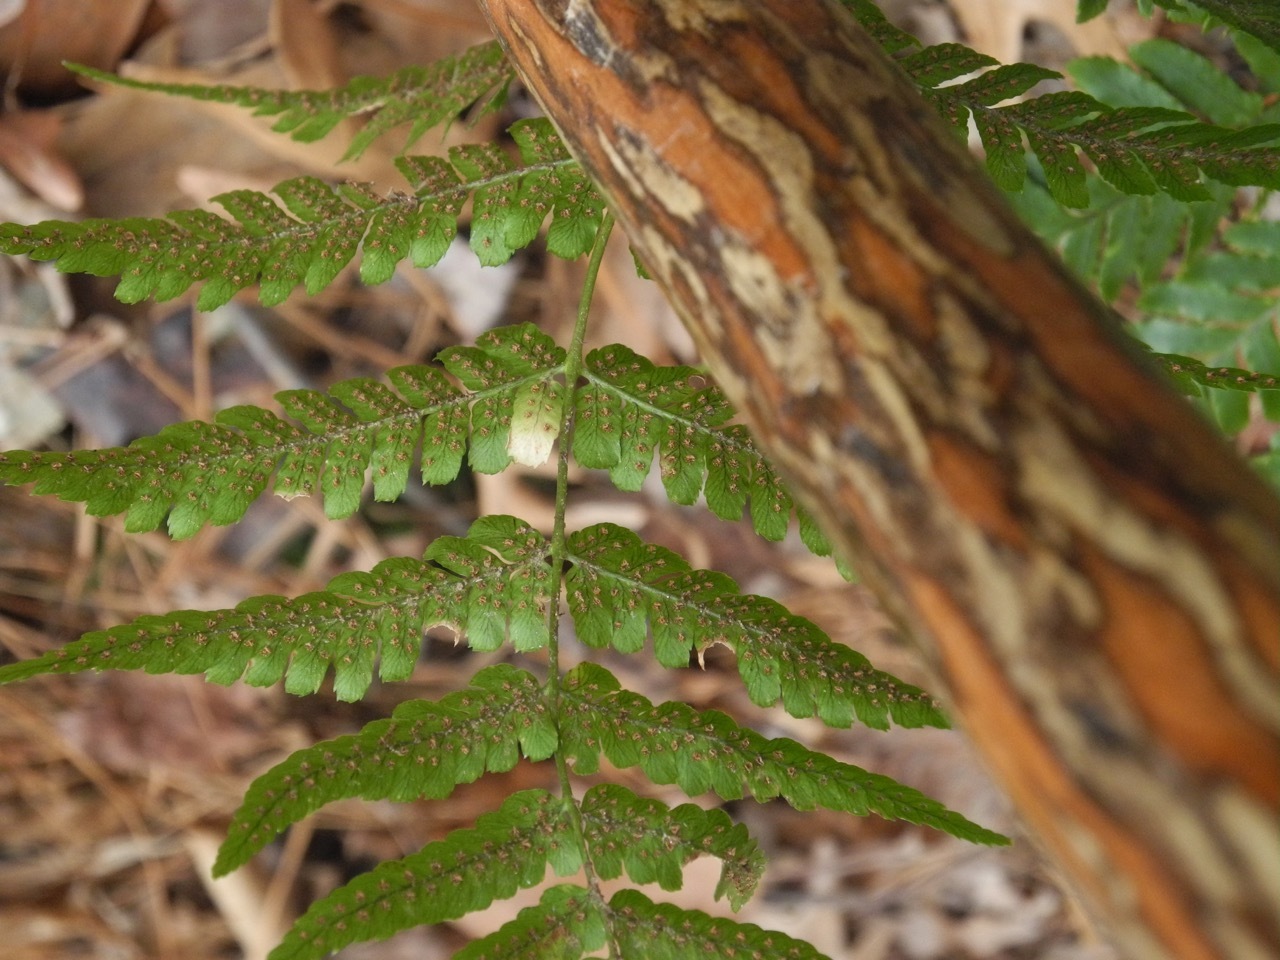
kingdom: Plantae
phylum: Tracheophyta
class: Polypodiopsida
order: Polypodiales
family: Dryopteridaceae
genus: Dryopteris
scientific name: Dryopteris erythrosora
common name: Autumn fern
